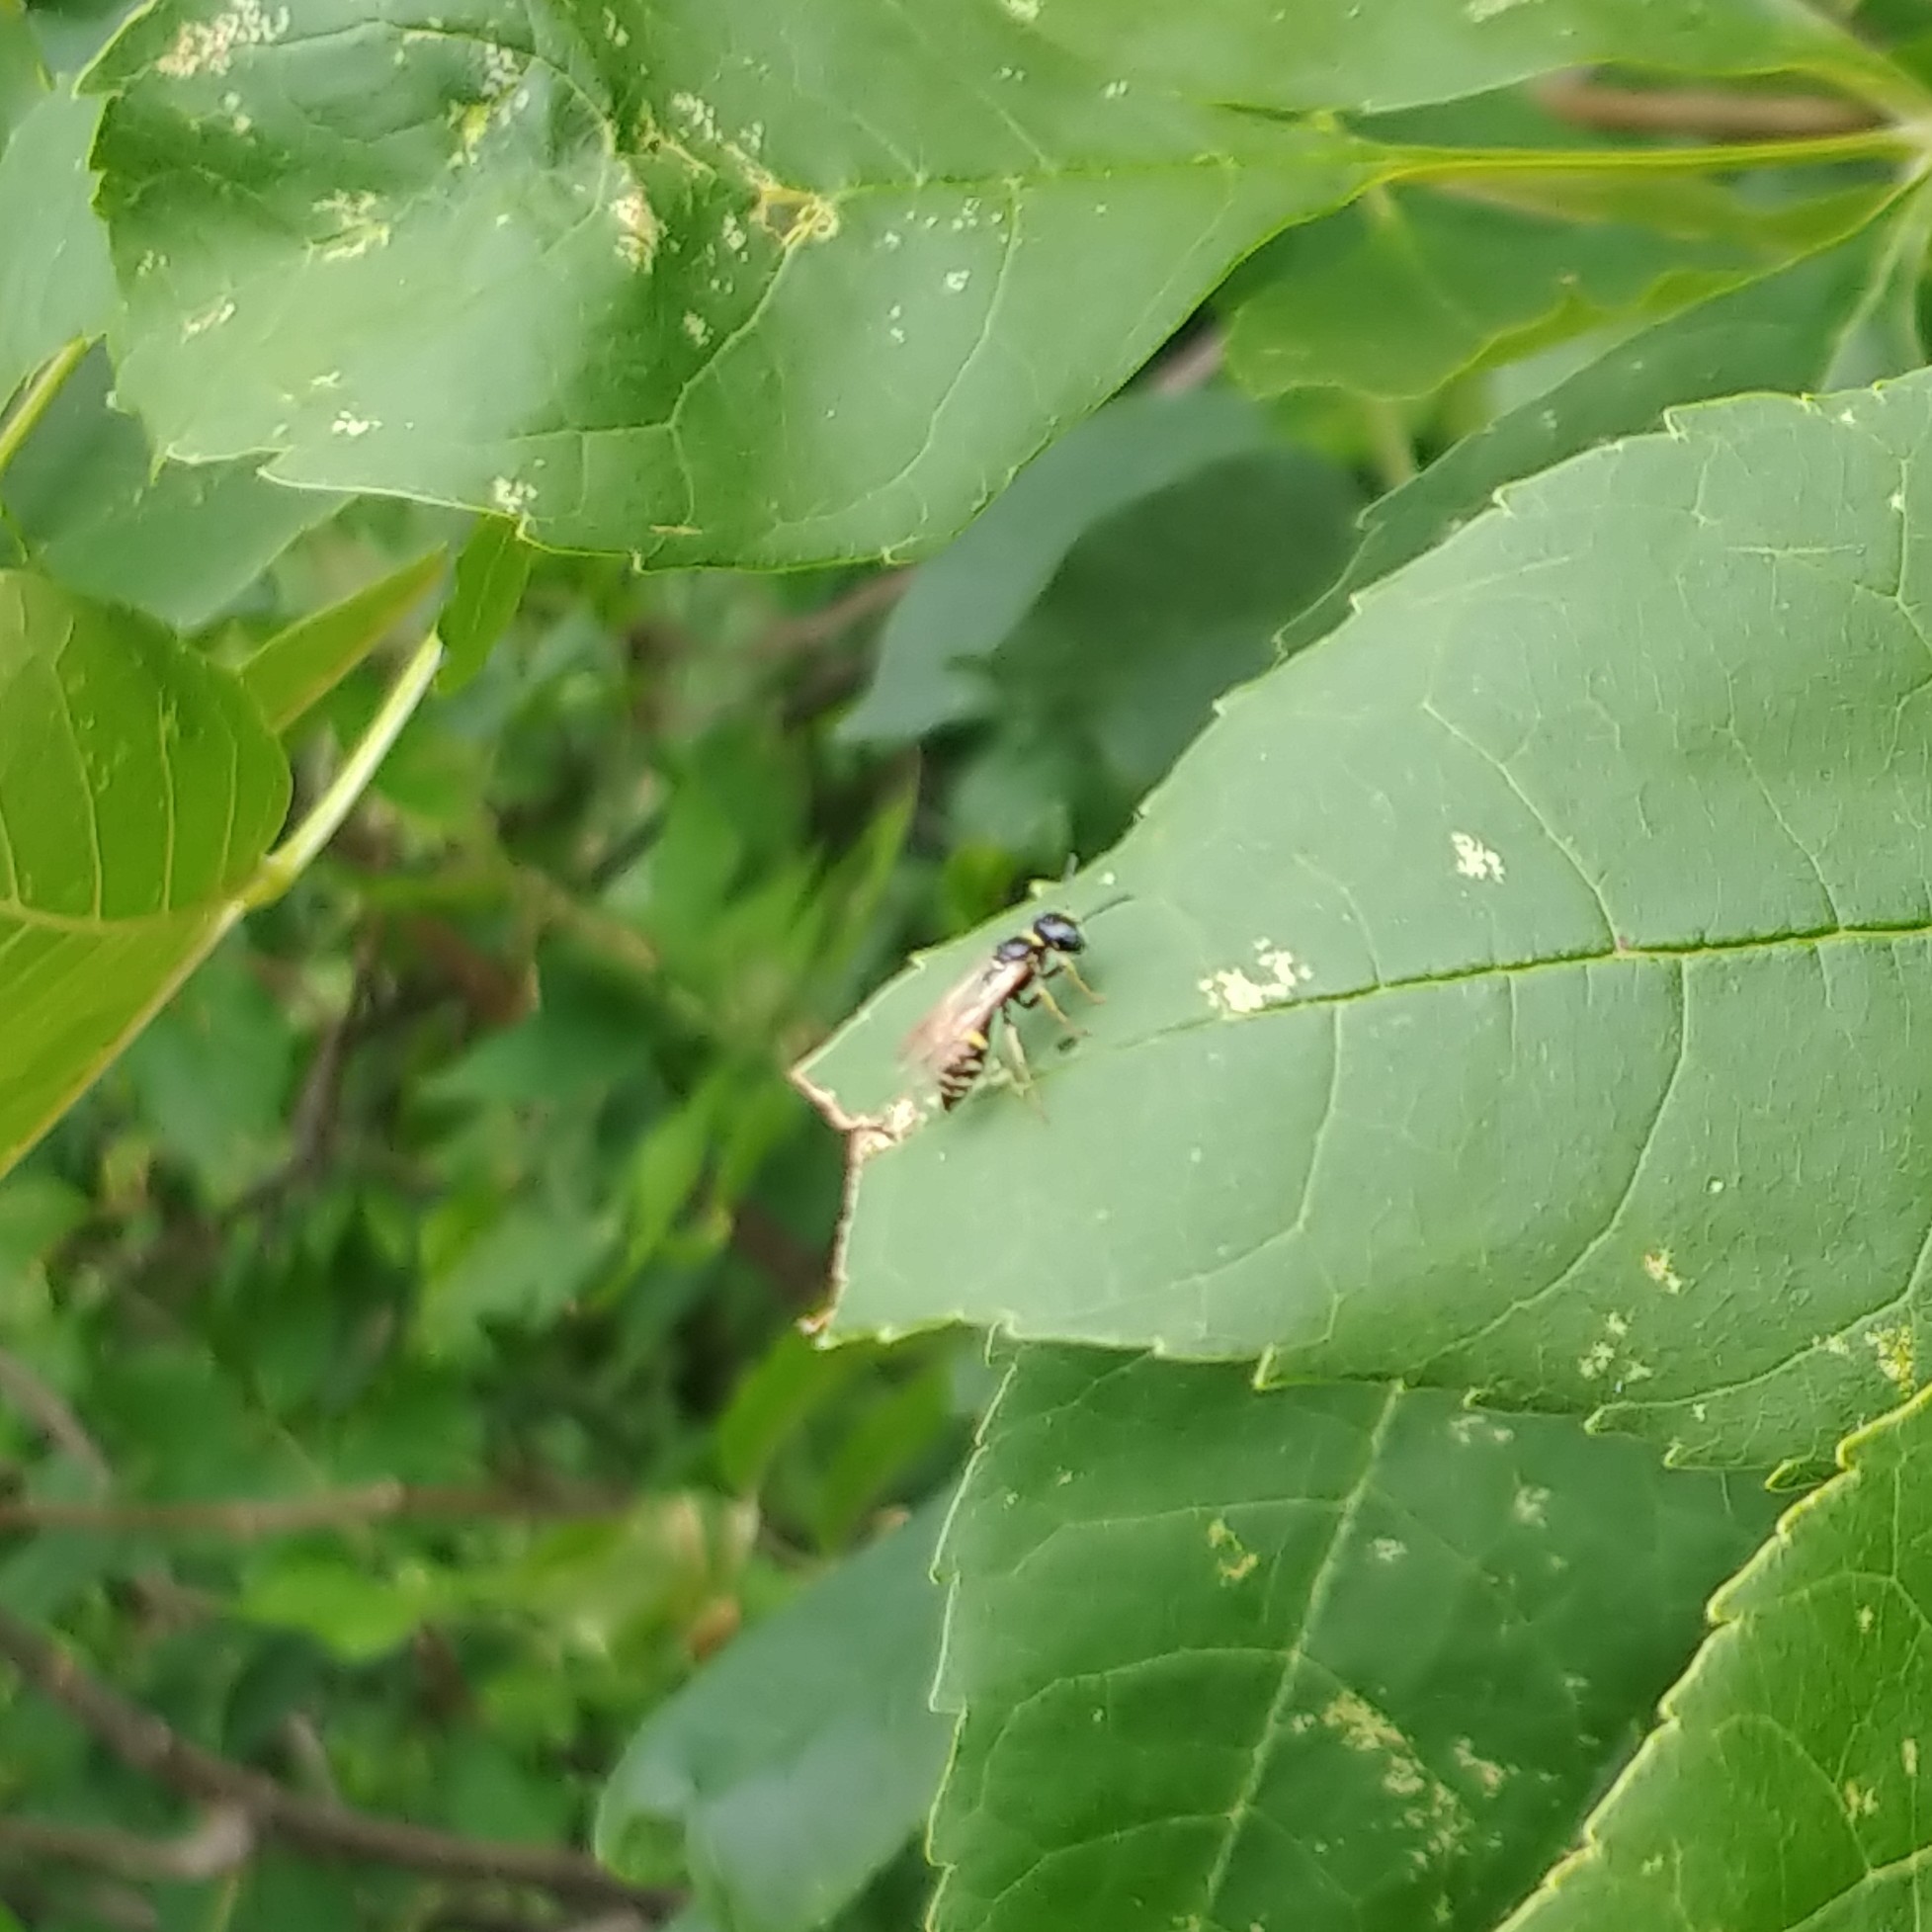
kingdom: Animalia
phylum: Arthropoda
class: Insecta
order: Hymenoptera
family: Crabronidae
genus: Philanthus
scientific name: Philanthus bilunatus
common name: Two moons beewolf
